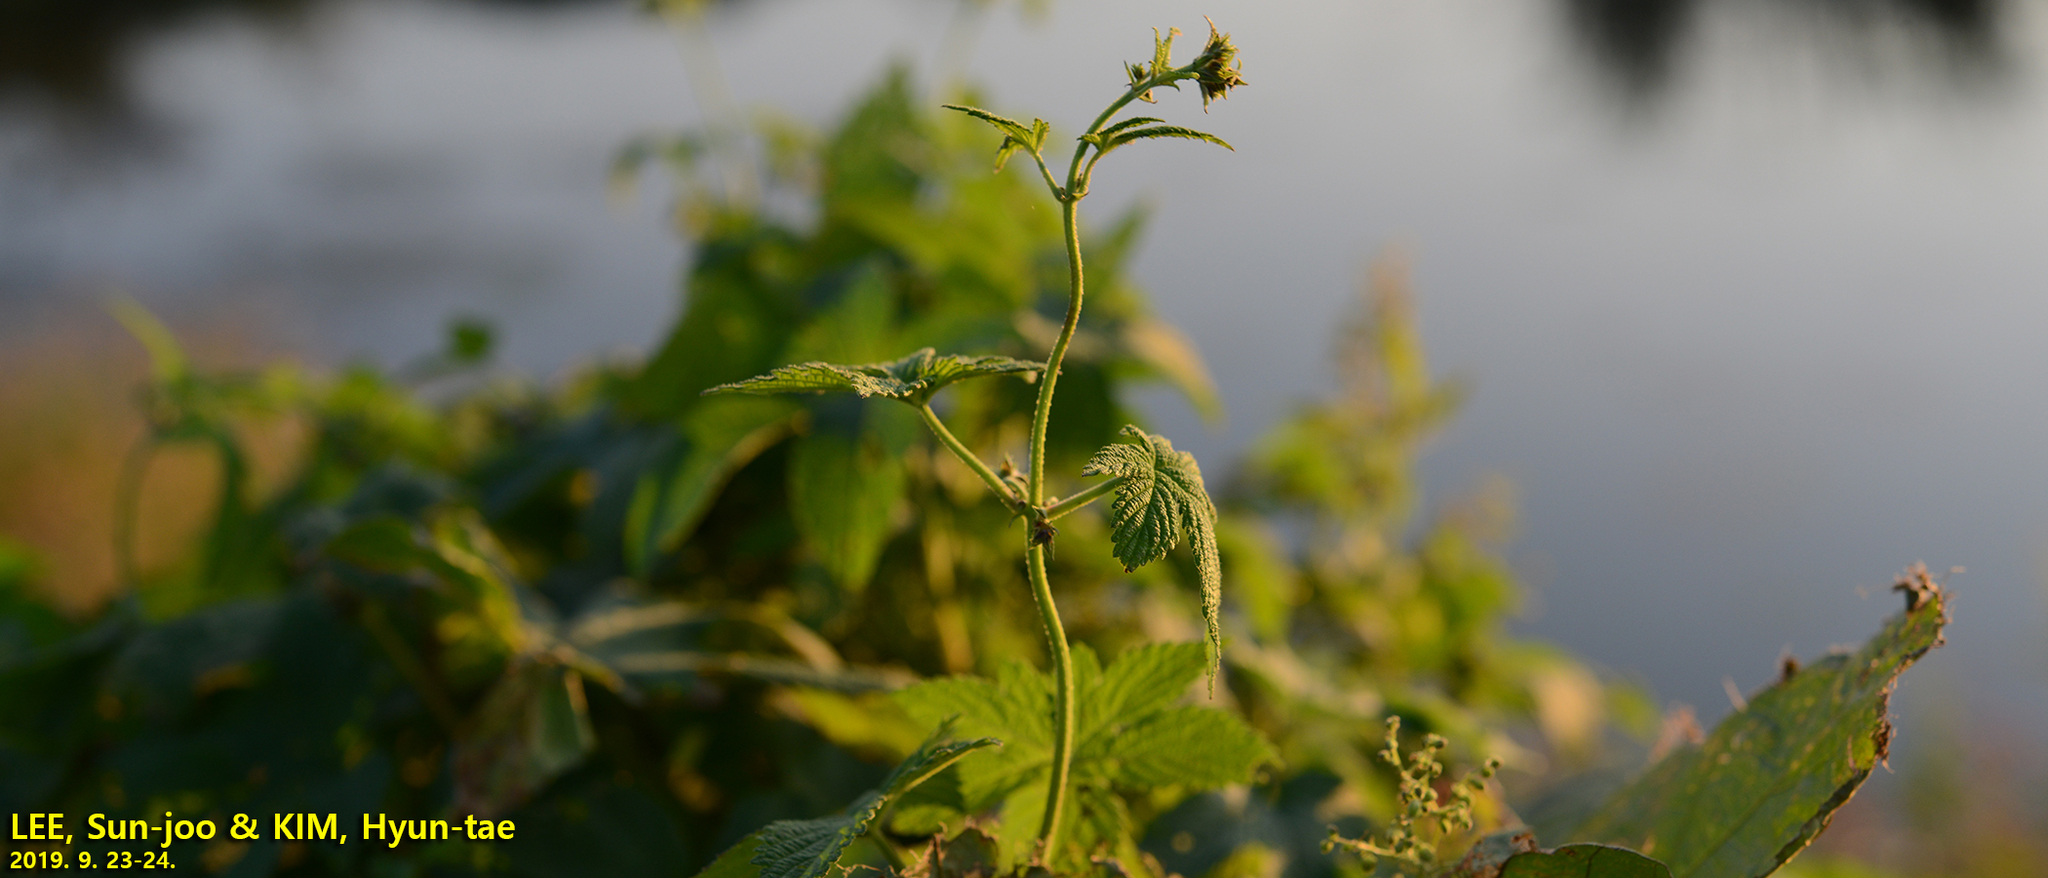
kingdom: Plantae
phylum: Tracheophyta
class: Magnoliopsida
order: Rosales
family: Cannabaceae
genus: Humulus
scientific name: Humulus scandens
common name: Japanese hop
